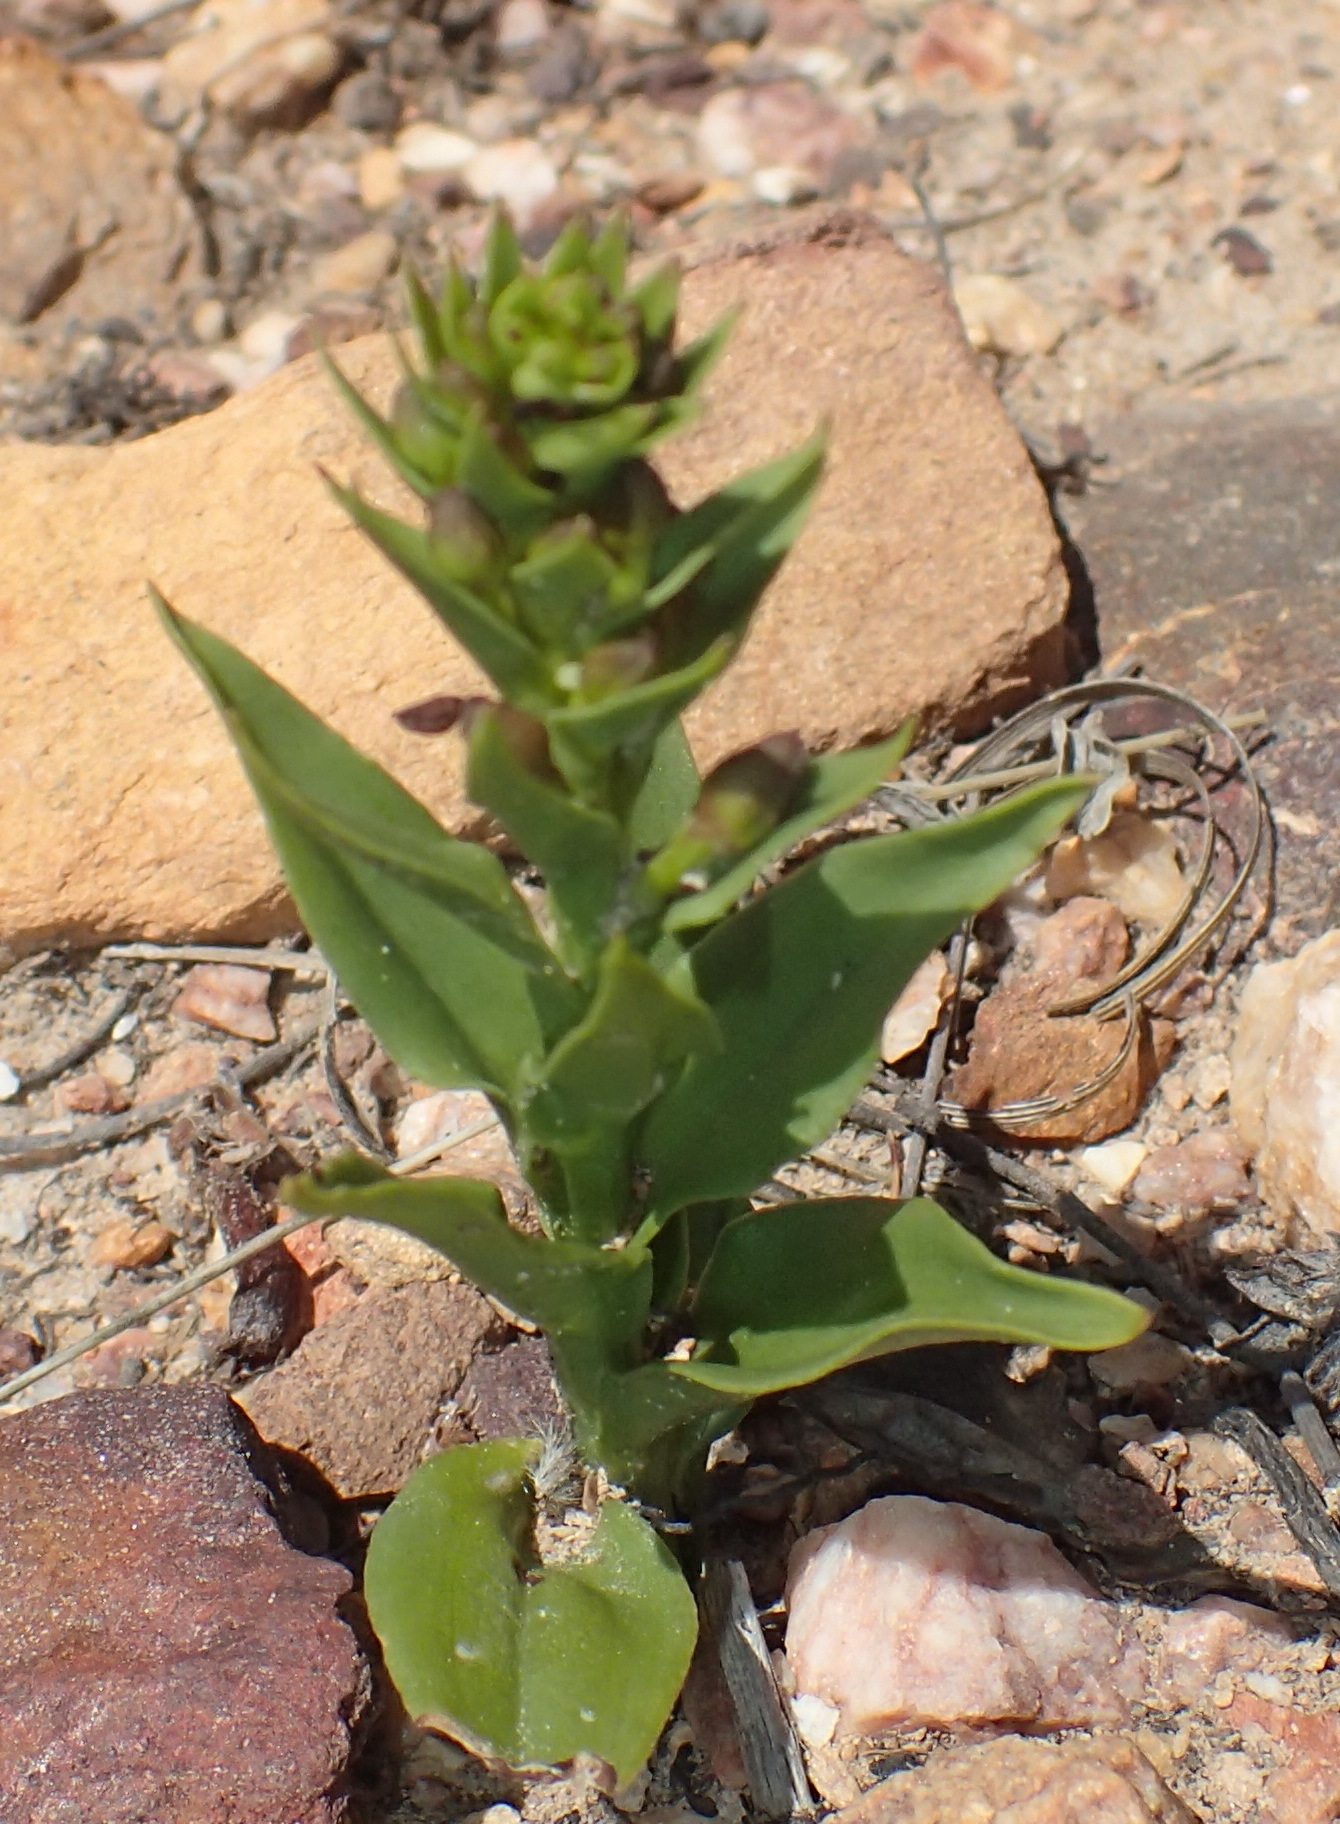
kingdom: Plantae
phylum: Tracheophyta
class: Liliopsida
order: Asparagales
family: Orchidaceae
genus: Brachycorythis
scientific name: Brachycorythis mac-owaniana
